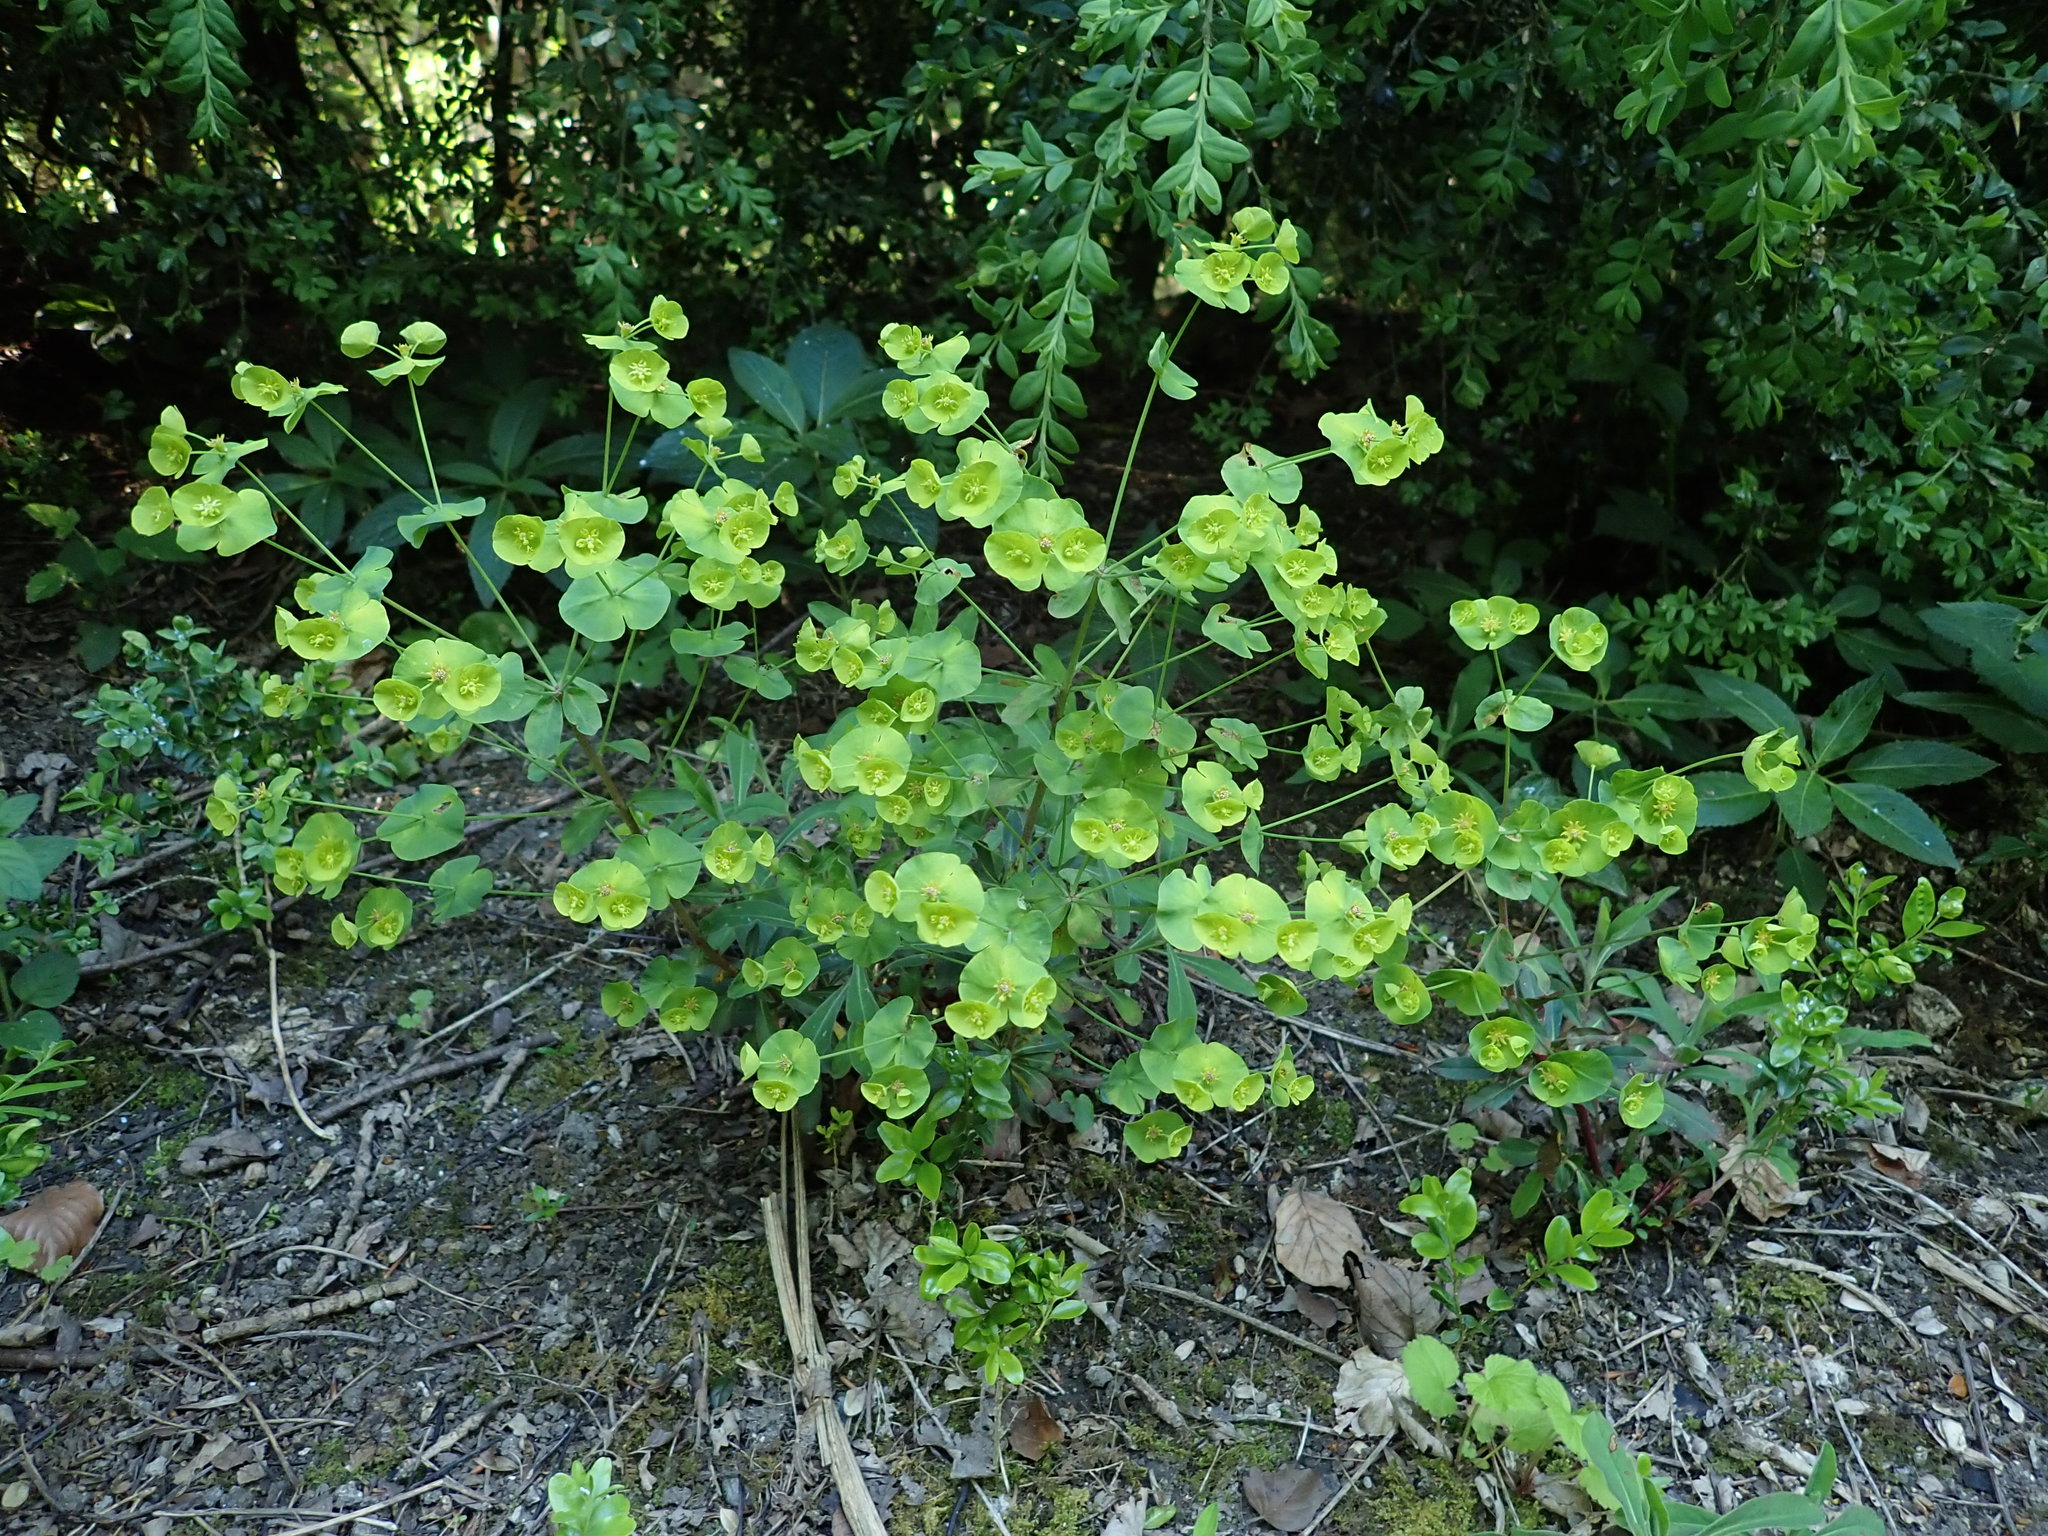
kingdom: Plantae
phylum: Tracheophyta
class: Magnoliopsida
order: Malpighiales
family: Euphorbiaceae
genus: Euphorbia
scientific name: Euphorbia amygdaloides
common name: Wood spurge
